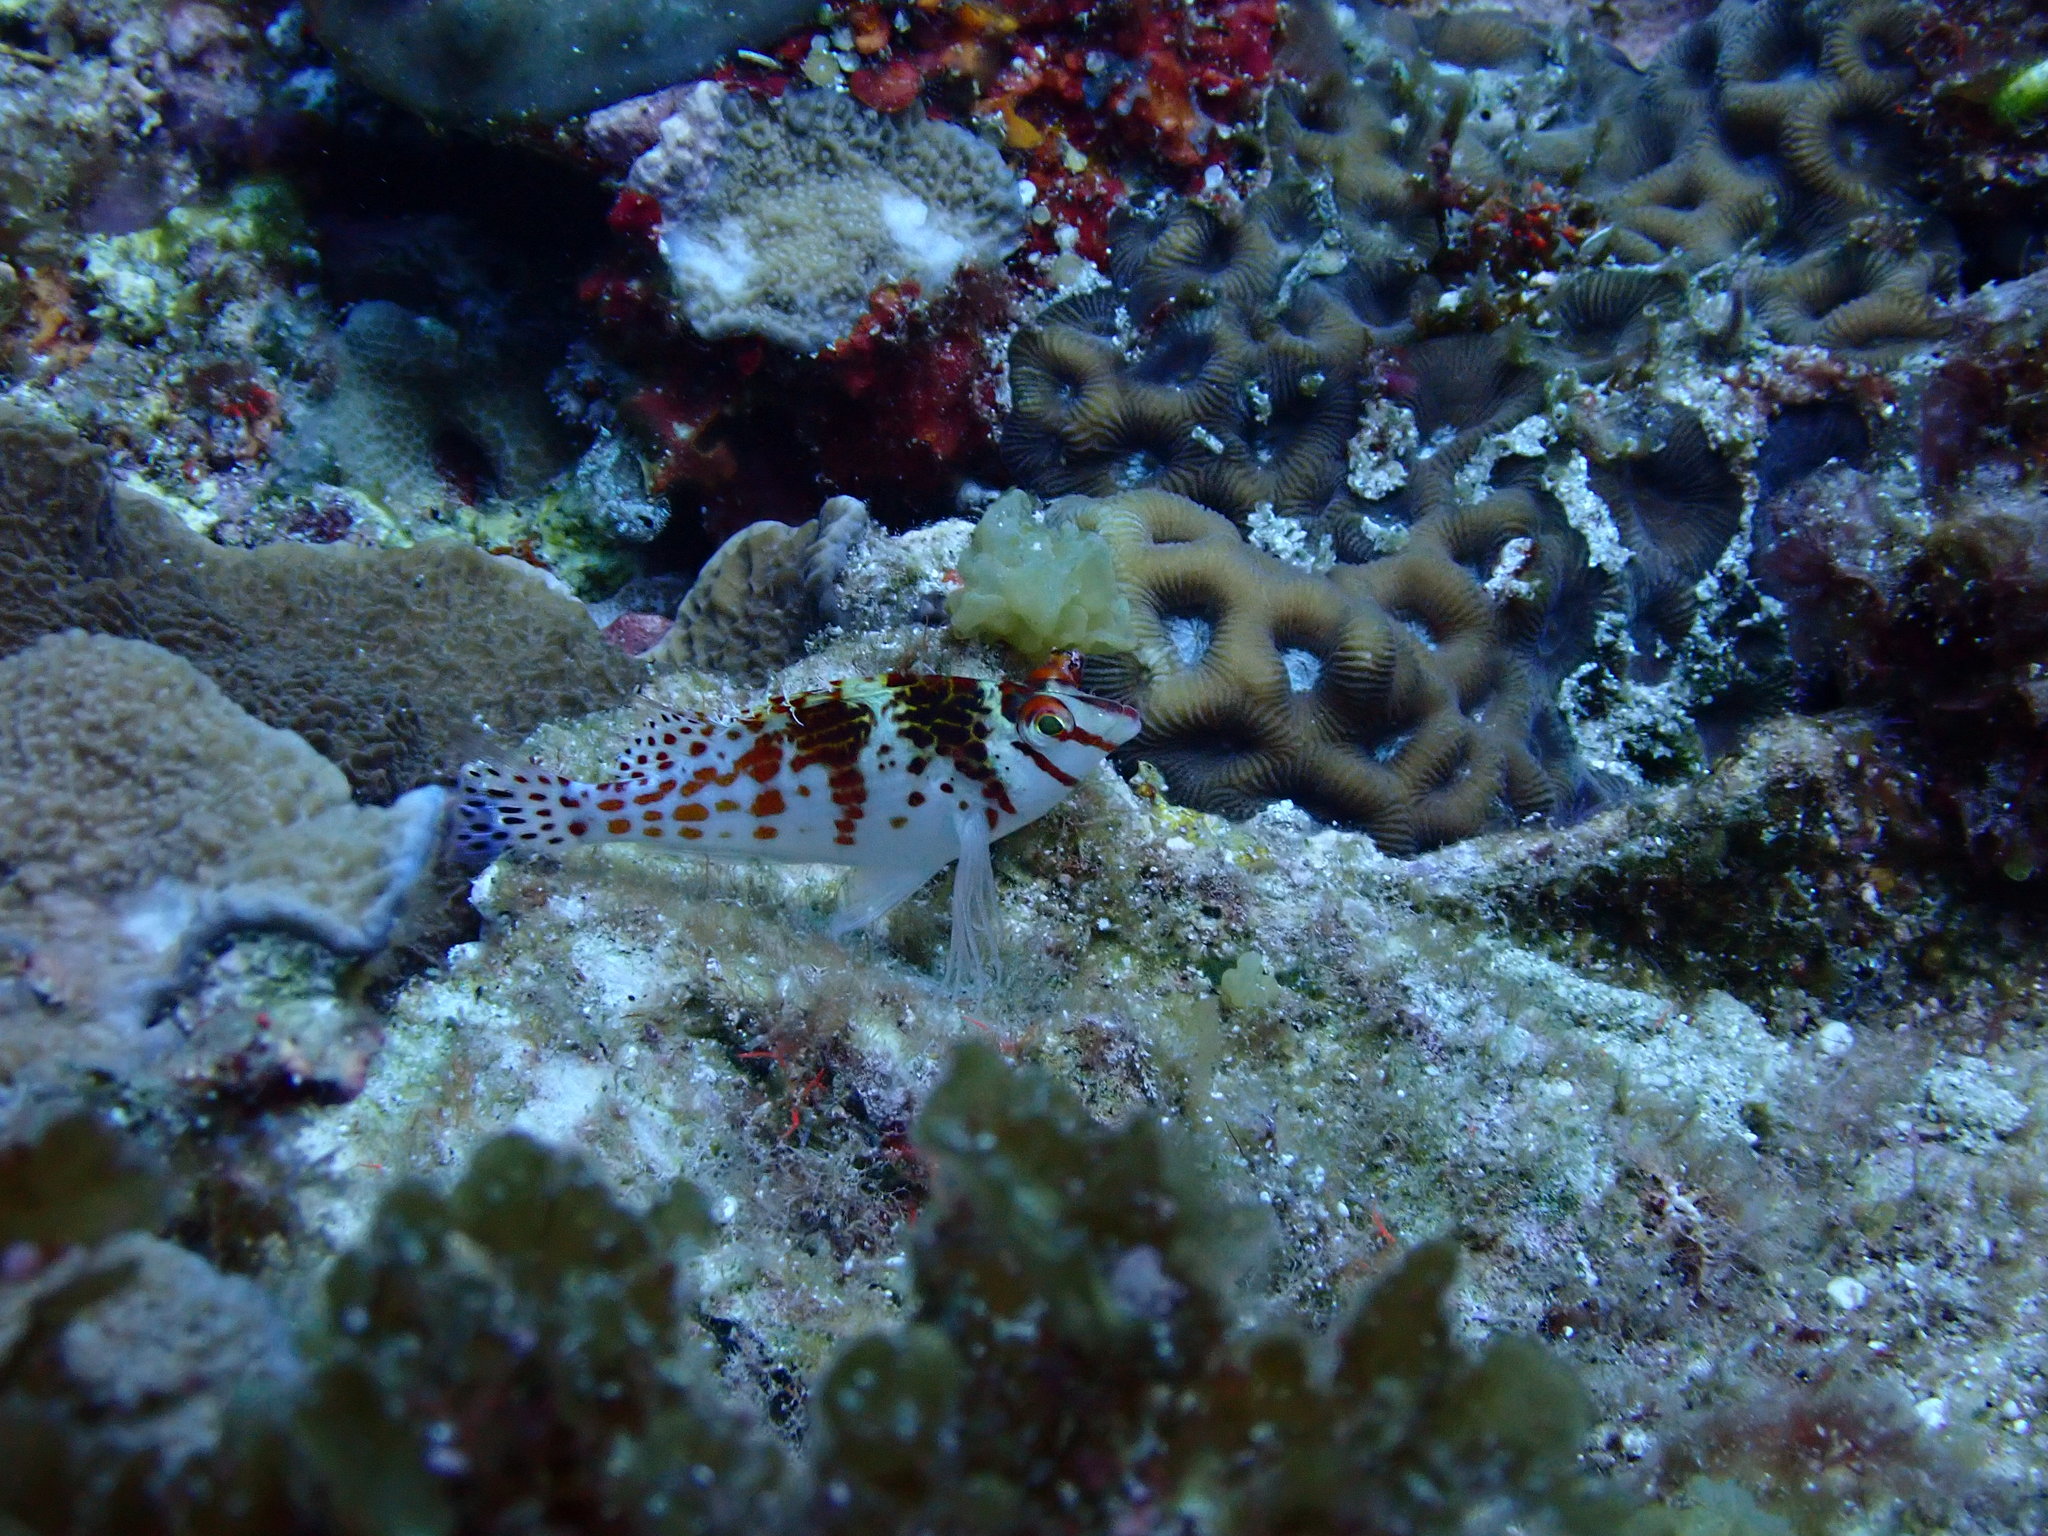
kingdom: Animalia
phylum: Chordata
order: Perciformes
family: Cirrhitidae
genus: Cirrhitichthys
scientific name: Cirrhitichthys falco
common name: Coral hawkfish
